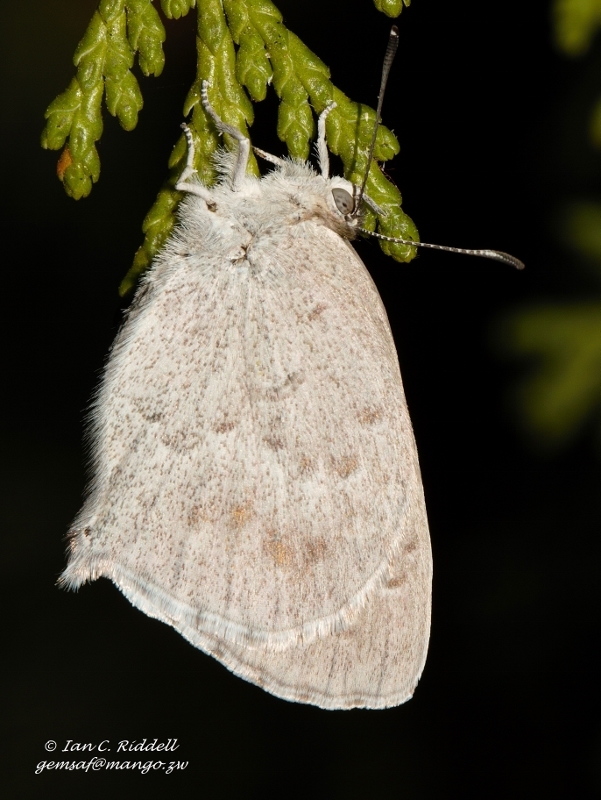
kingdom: Animalia
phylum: Arthropoda
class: Insecta
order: Lepidoptera
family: Lycaenidae
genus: Leptomyrina
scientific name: Leptomyrina gorgias
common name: Common black-eye
